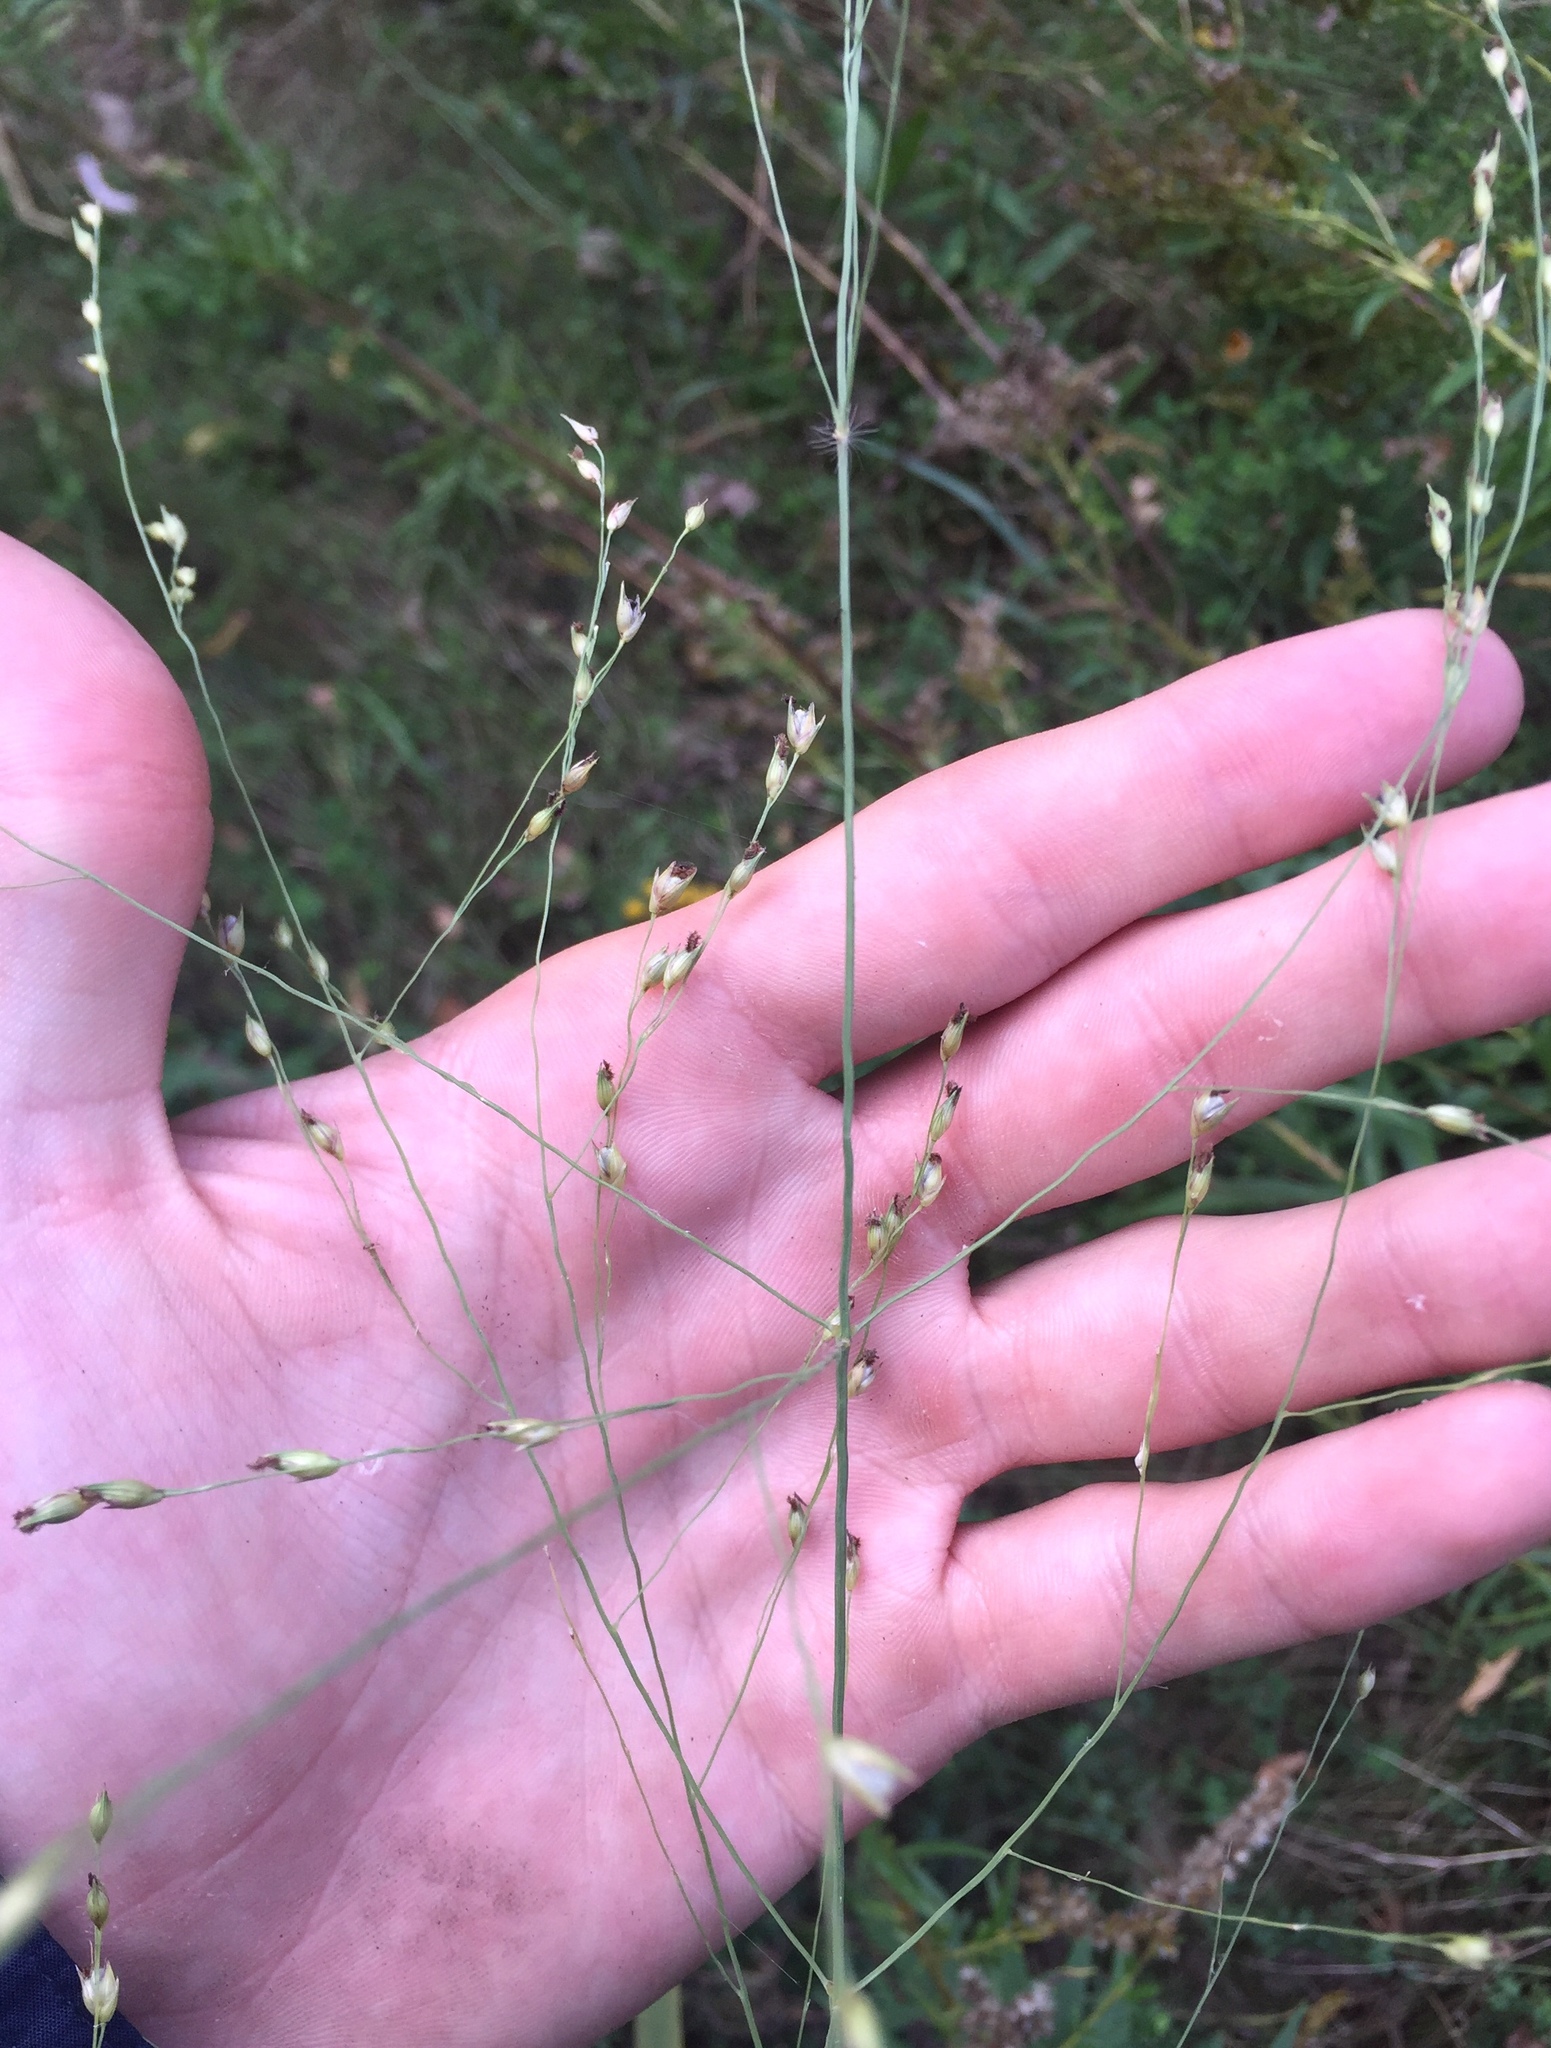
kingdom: Plantae
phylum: Tracheophyta
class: Liliopsida
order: Poales
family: Poaceae
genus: Panicum
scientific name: Panicum virgatum
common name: Switchgrass
